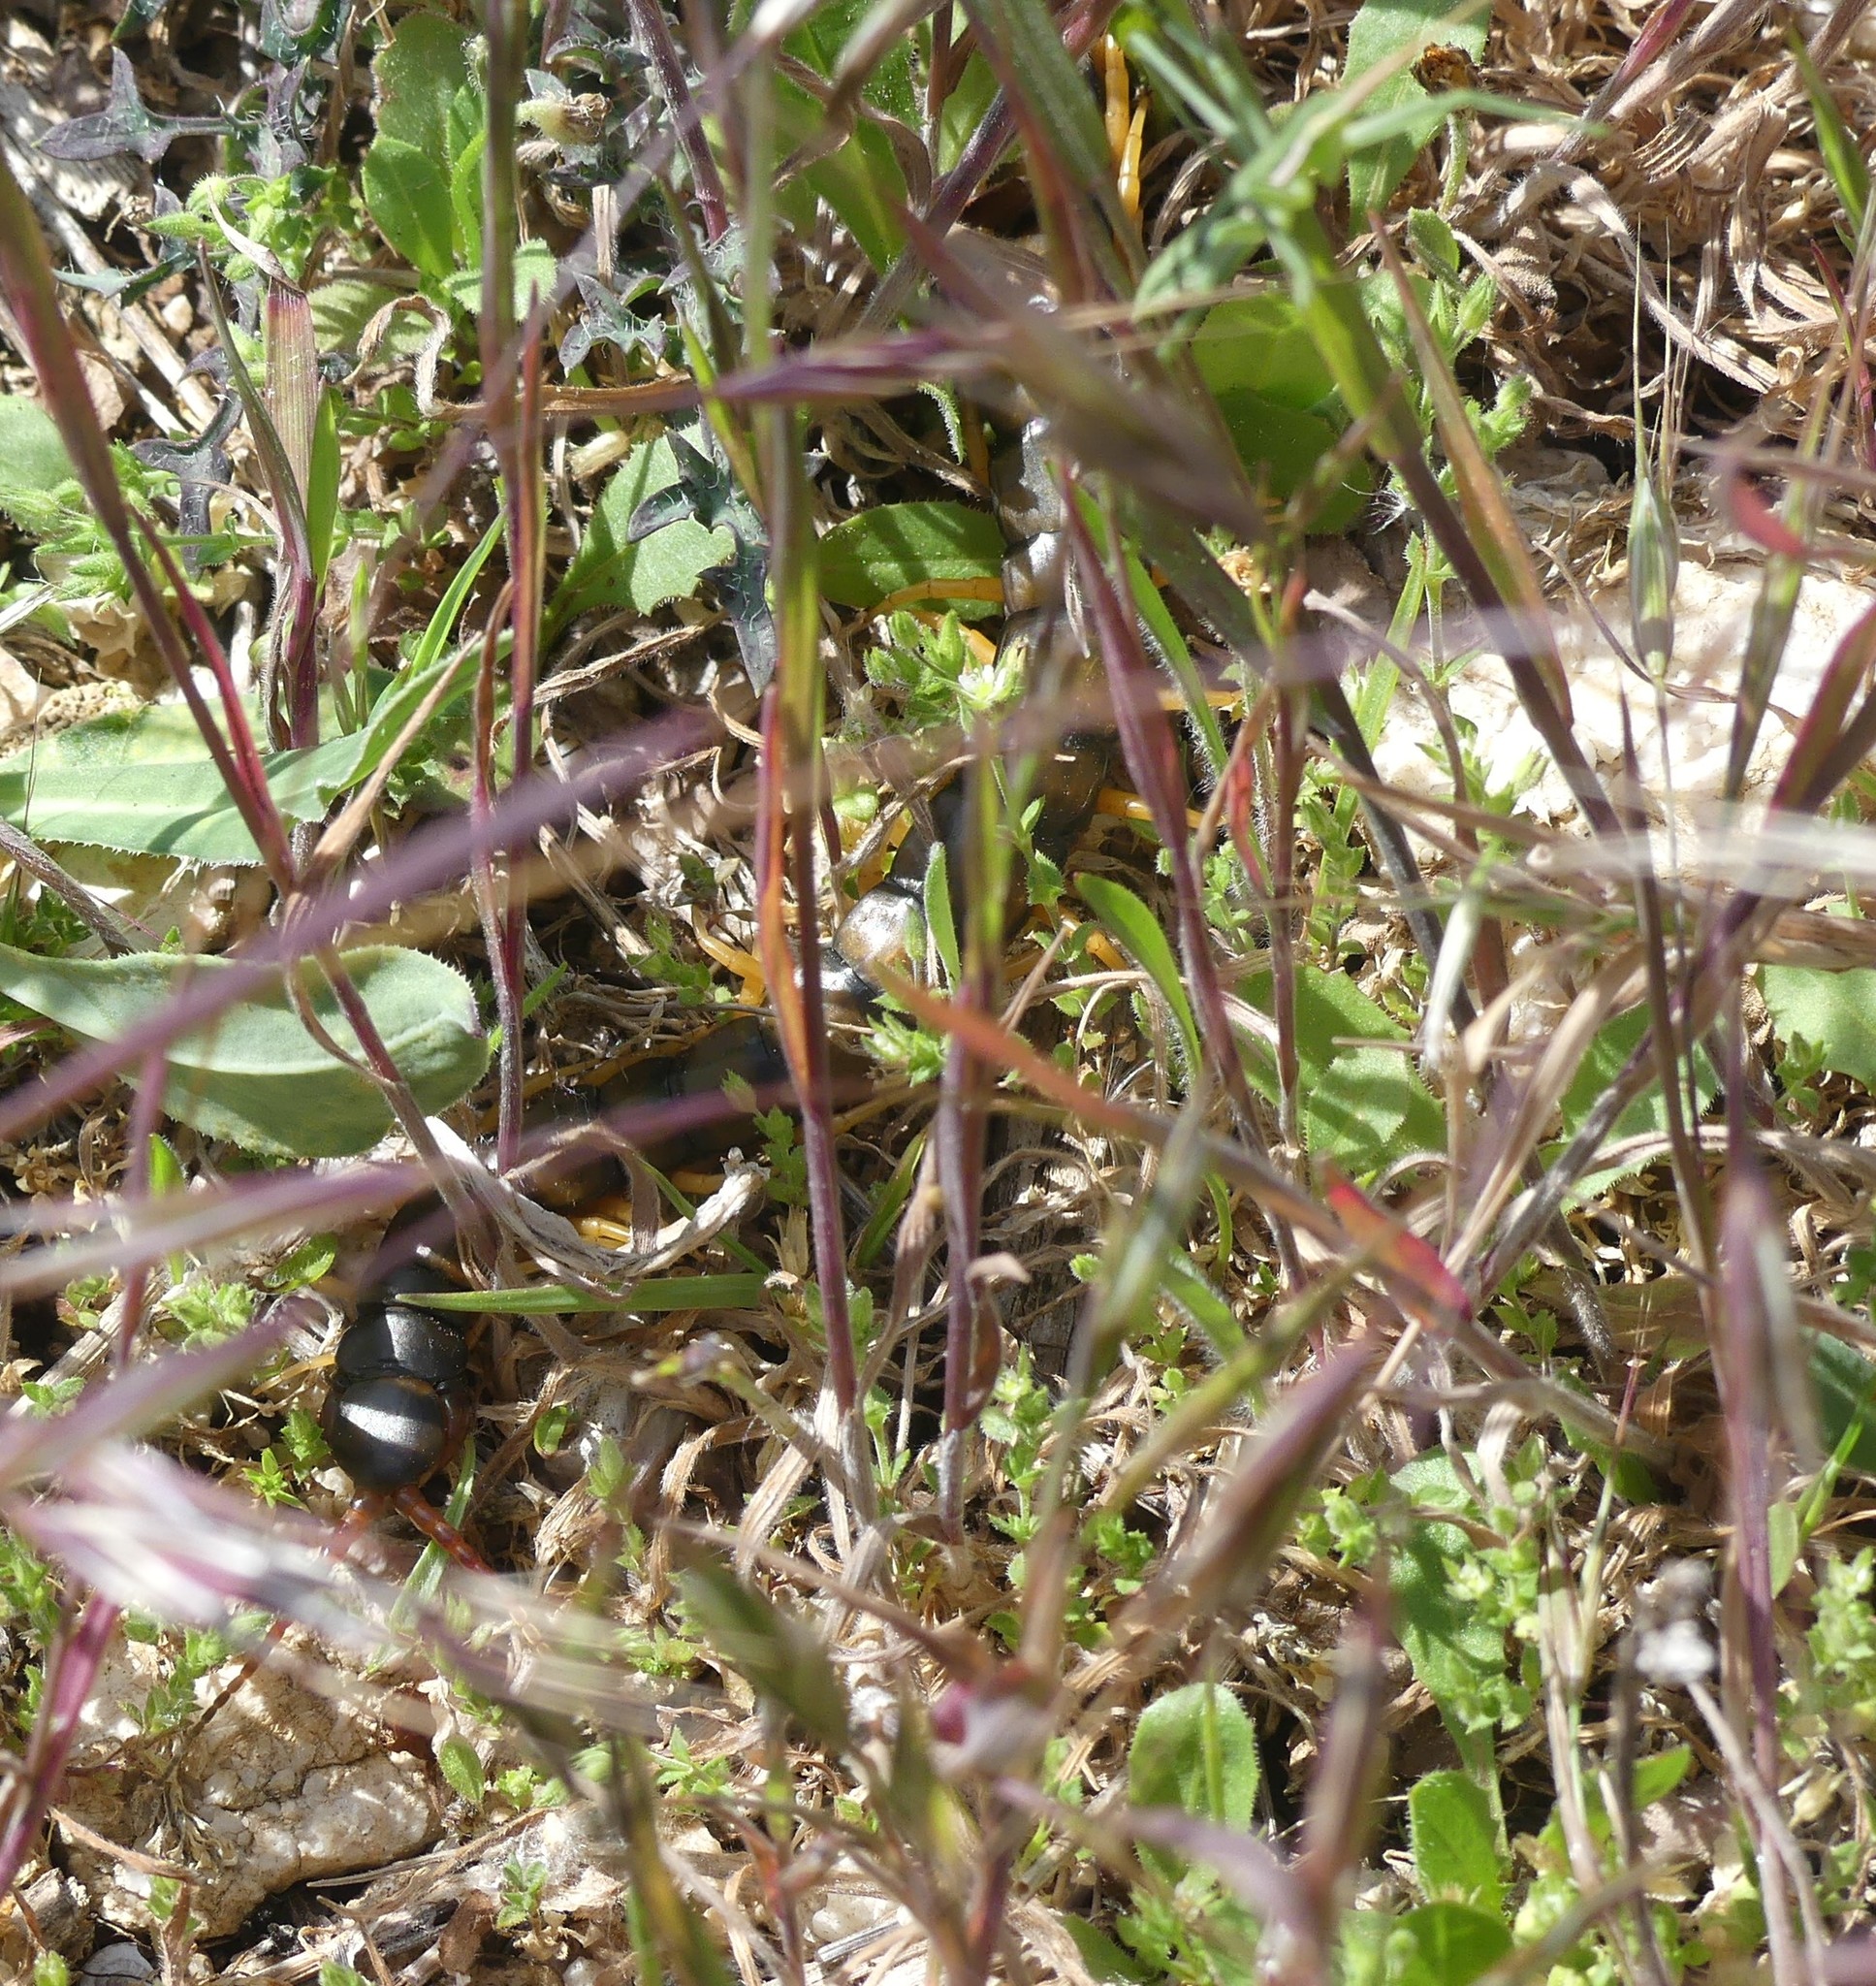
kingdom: Animalia
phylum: Arthropoda
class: Chilopoda
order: Scolopendromorpha
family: Scolopendridae
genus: Scolopendra
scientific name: Scolopendra cingulata
